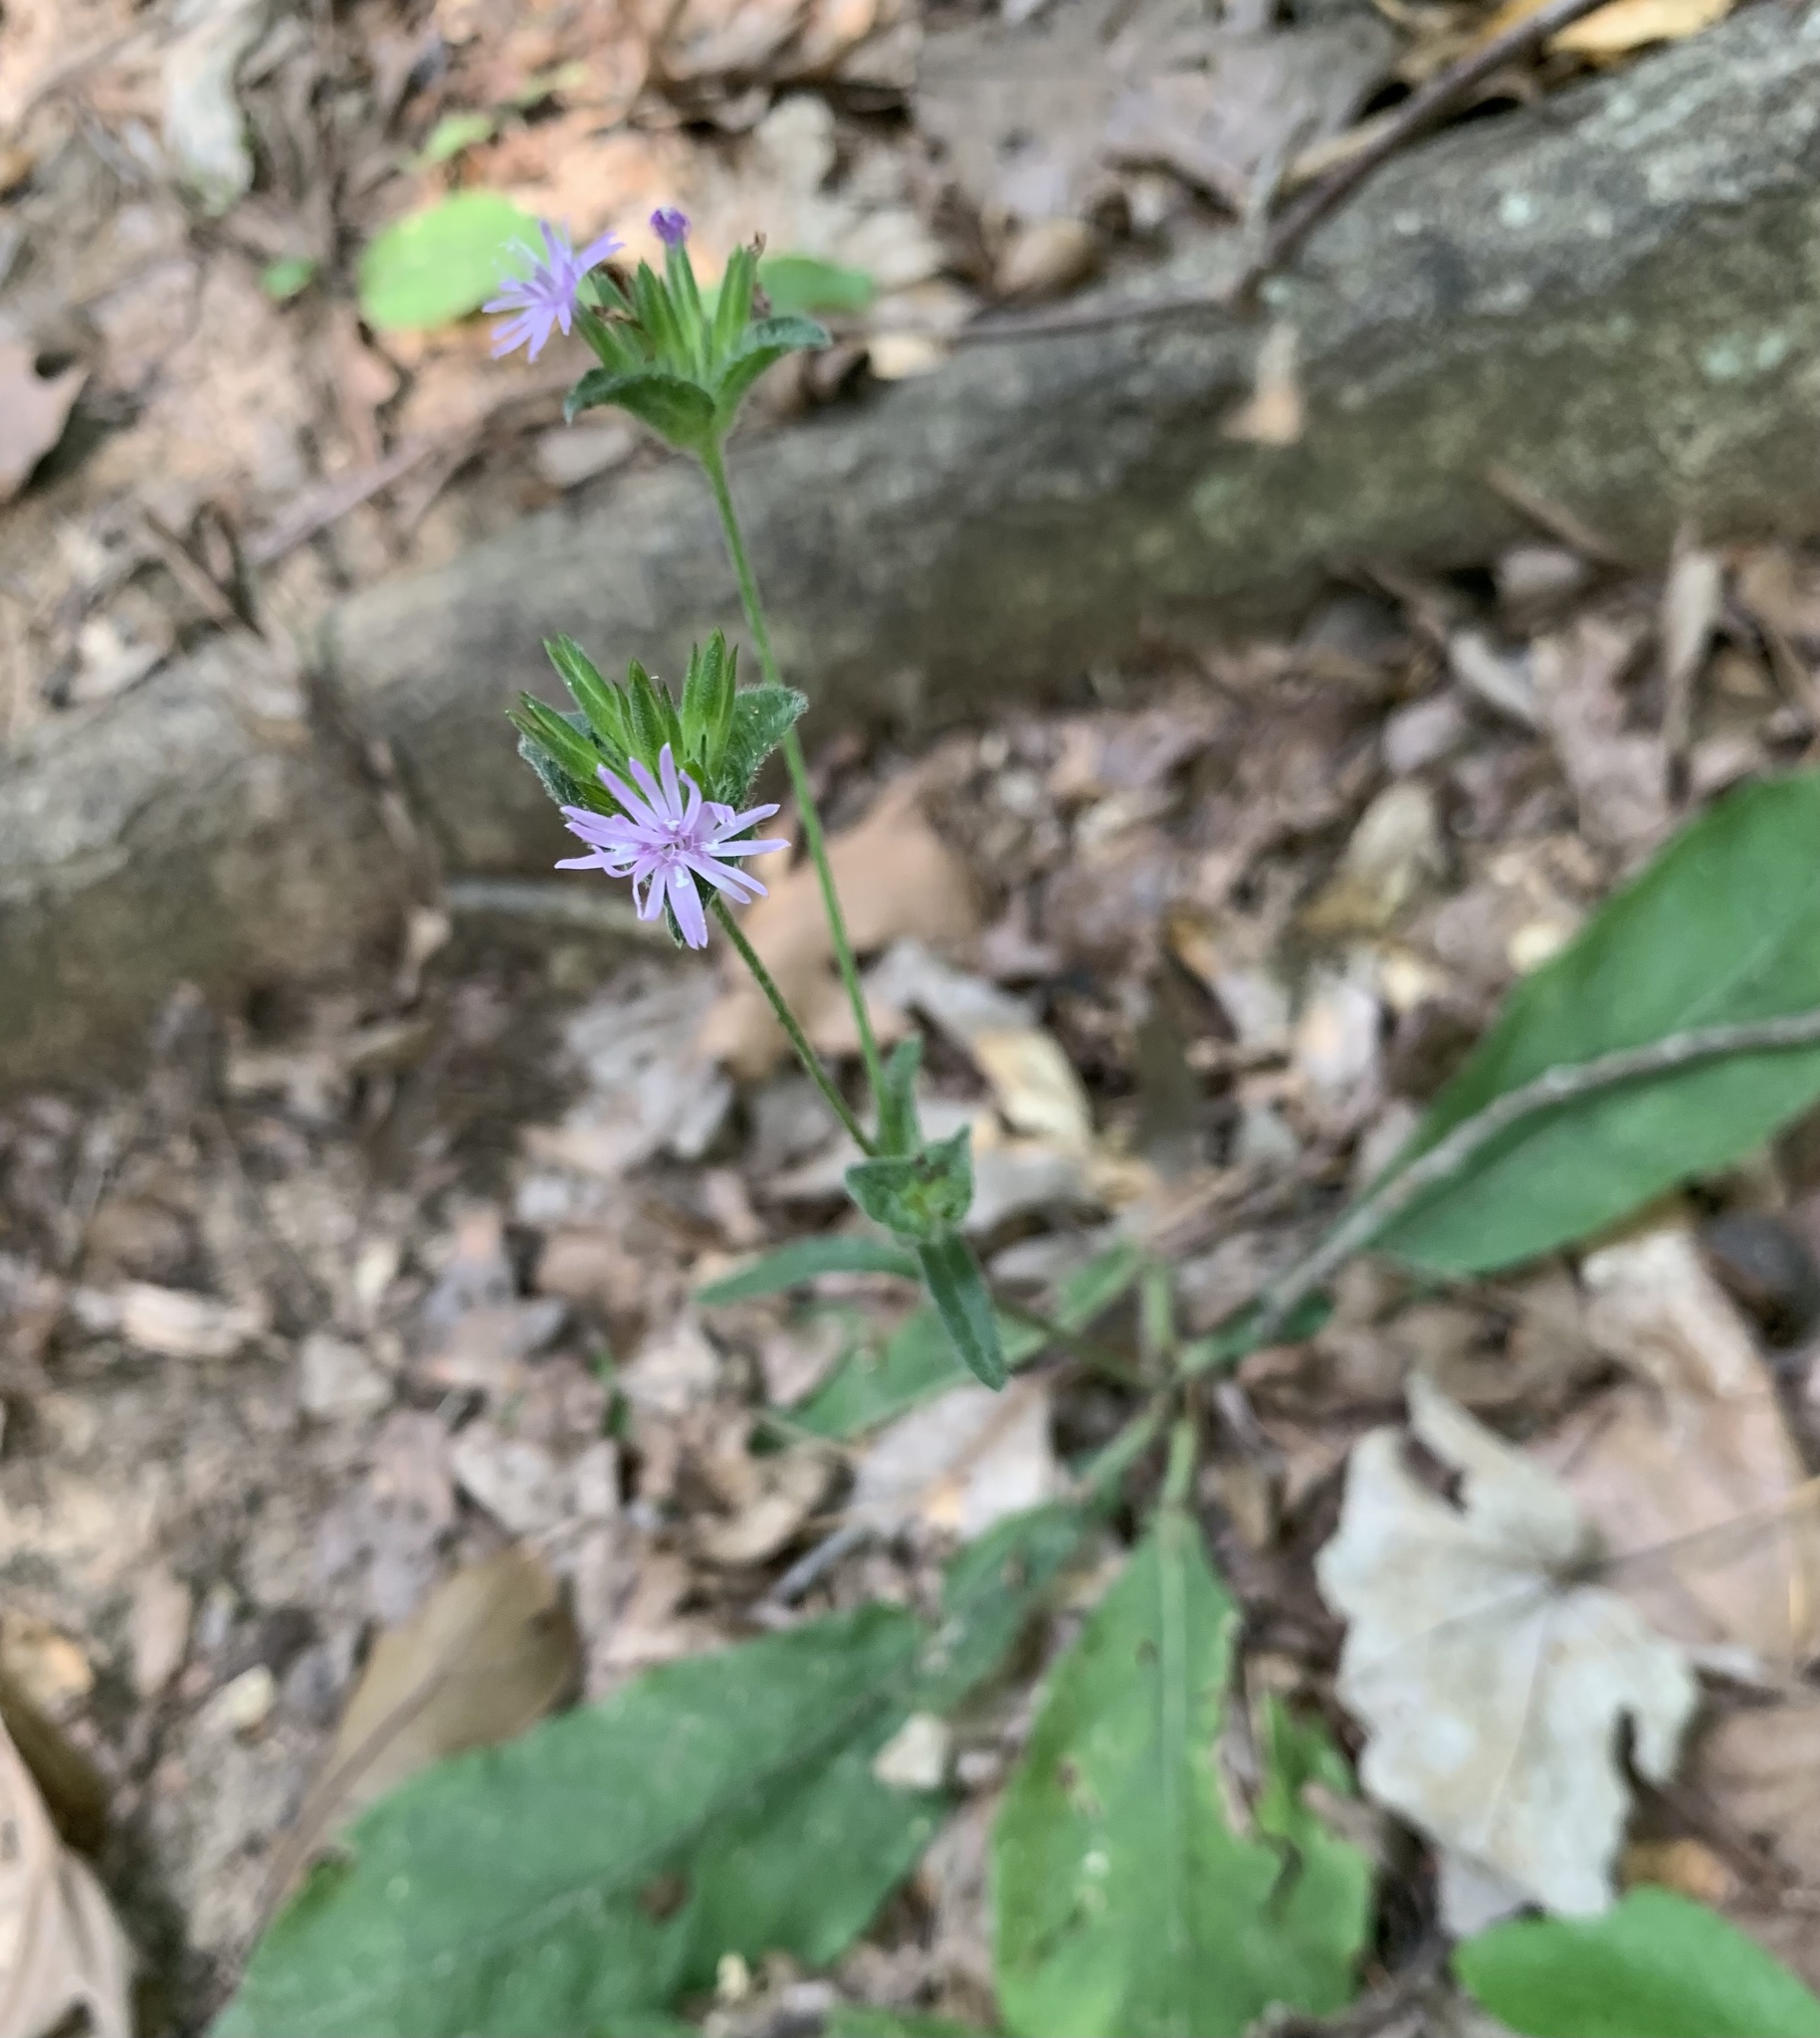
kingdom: Plantae
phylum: Tracheophyta
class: Magnoliopsida
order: Asterales
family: Asteraceae
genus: Elephantopus
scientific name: Elephantopus tomentosus
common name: Tobacco-weed
